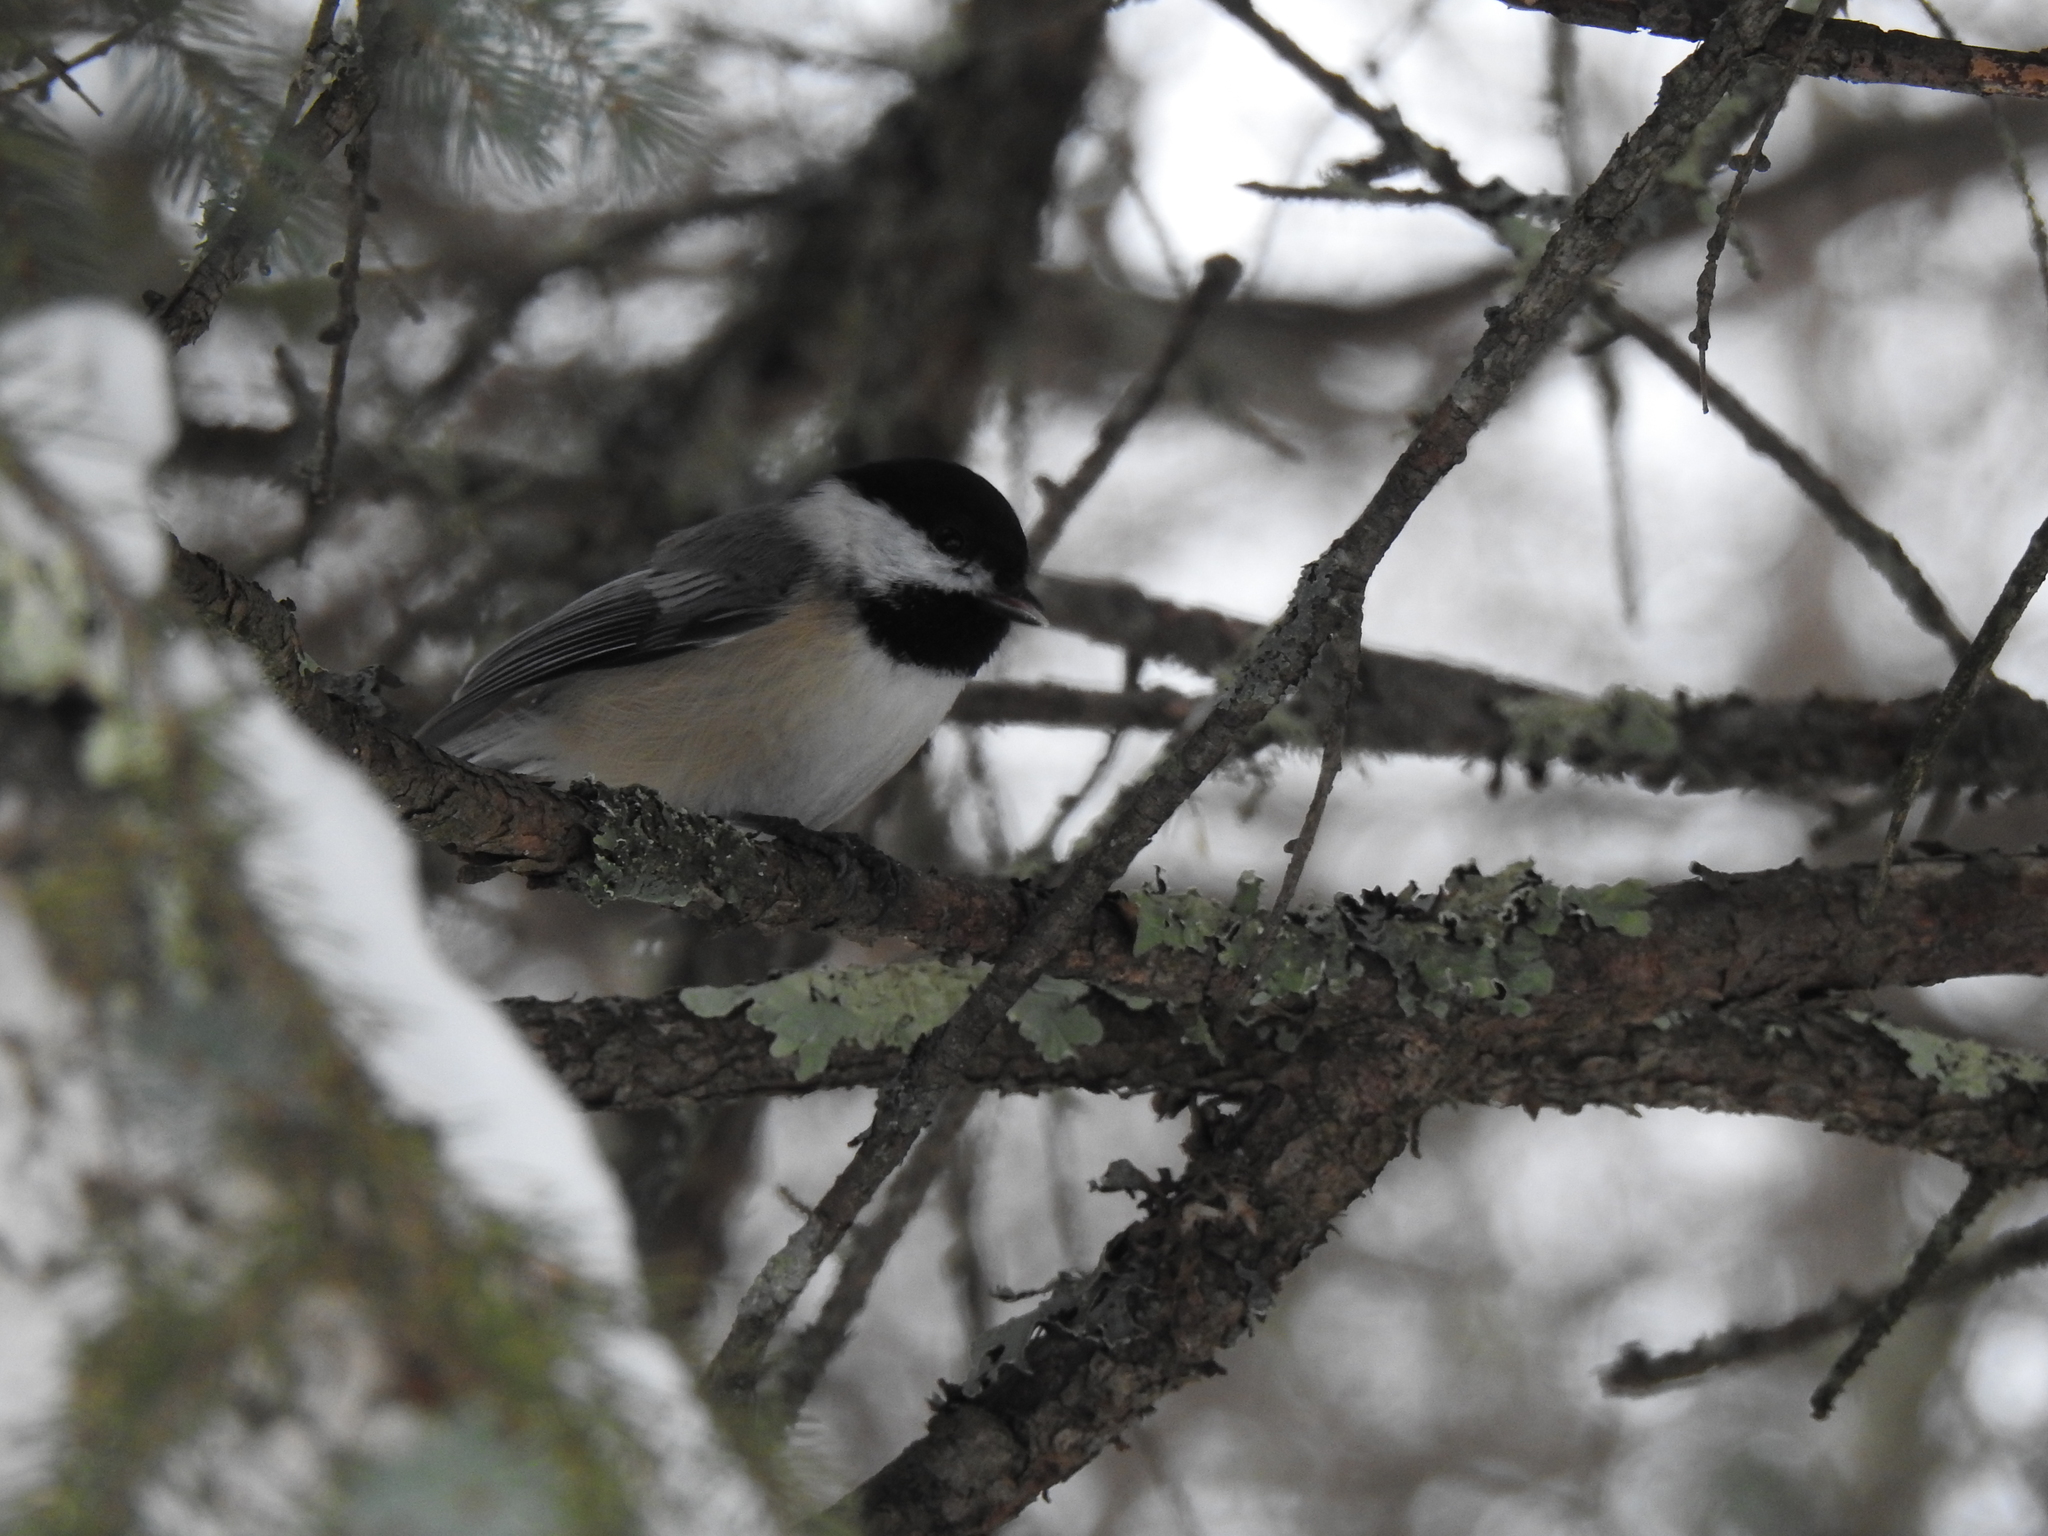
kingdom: Animalia
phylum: Chordata
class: Aves
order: Passeriformes
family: Paridae
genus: Poecile
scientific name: Poecile atricapillus
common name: Black-capped chickadee
